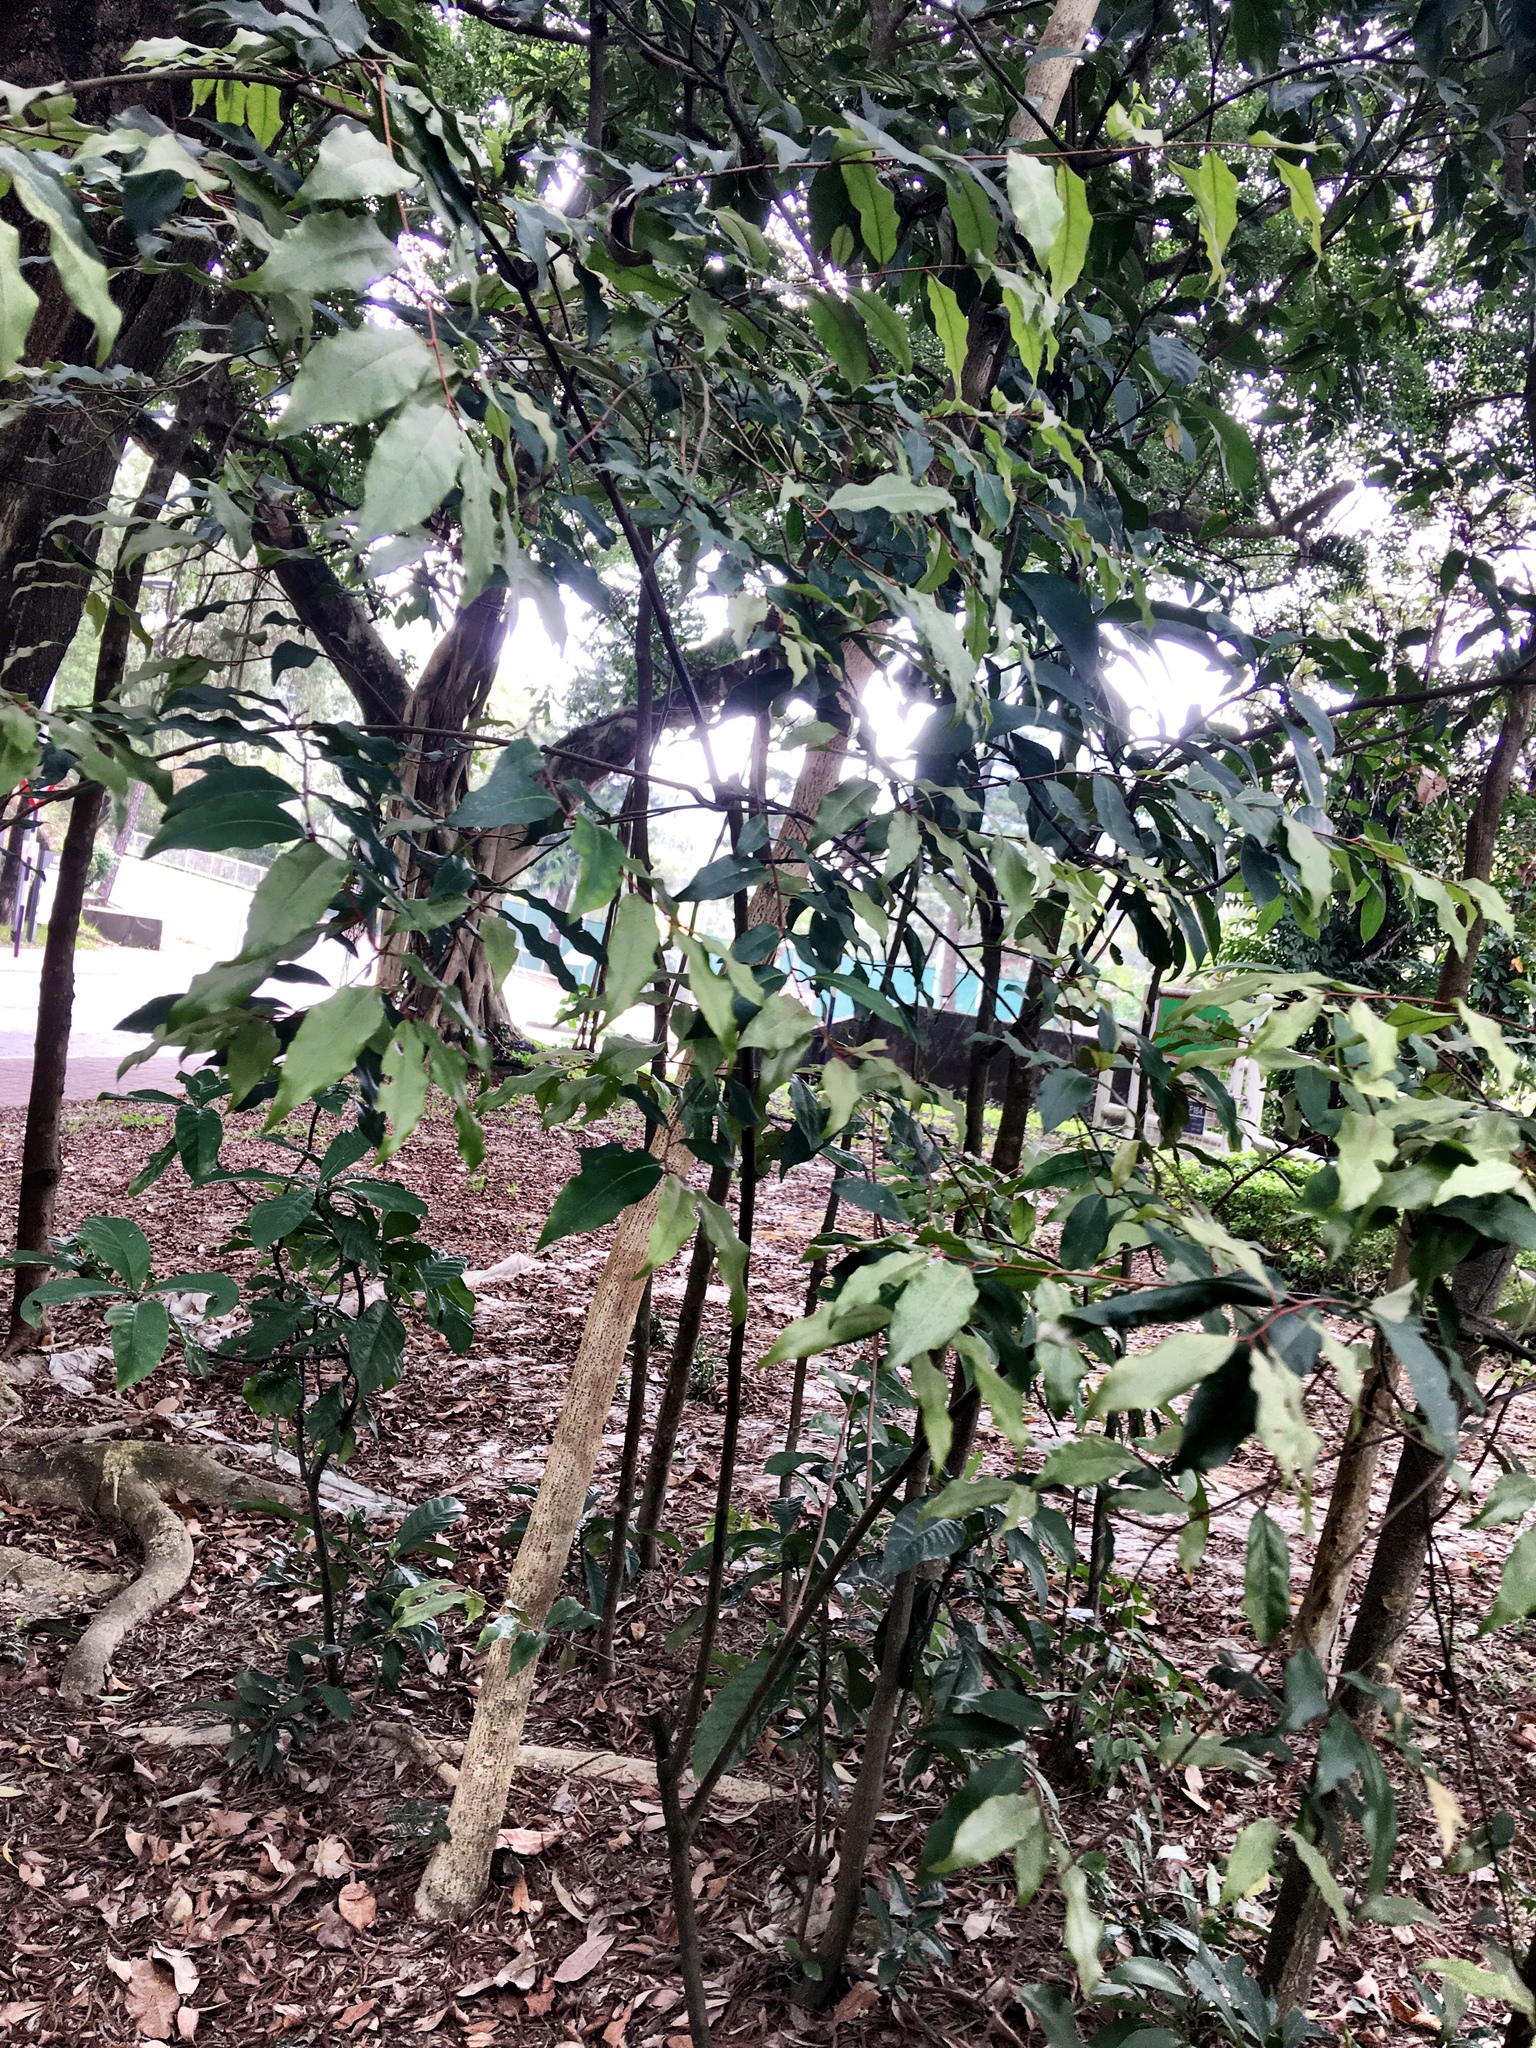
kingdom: Plantae
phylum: Tracheophyta
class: Magnoliopsida
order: Rosales
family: Elaeagnaceae
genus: Elaeagnus
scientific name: Elaeagnus loureiroi
